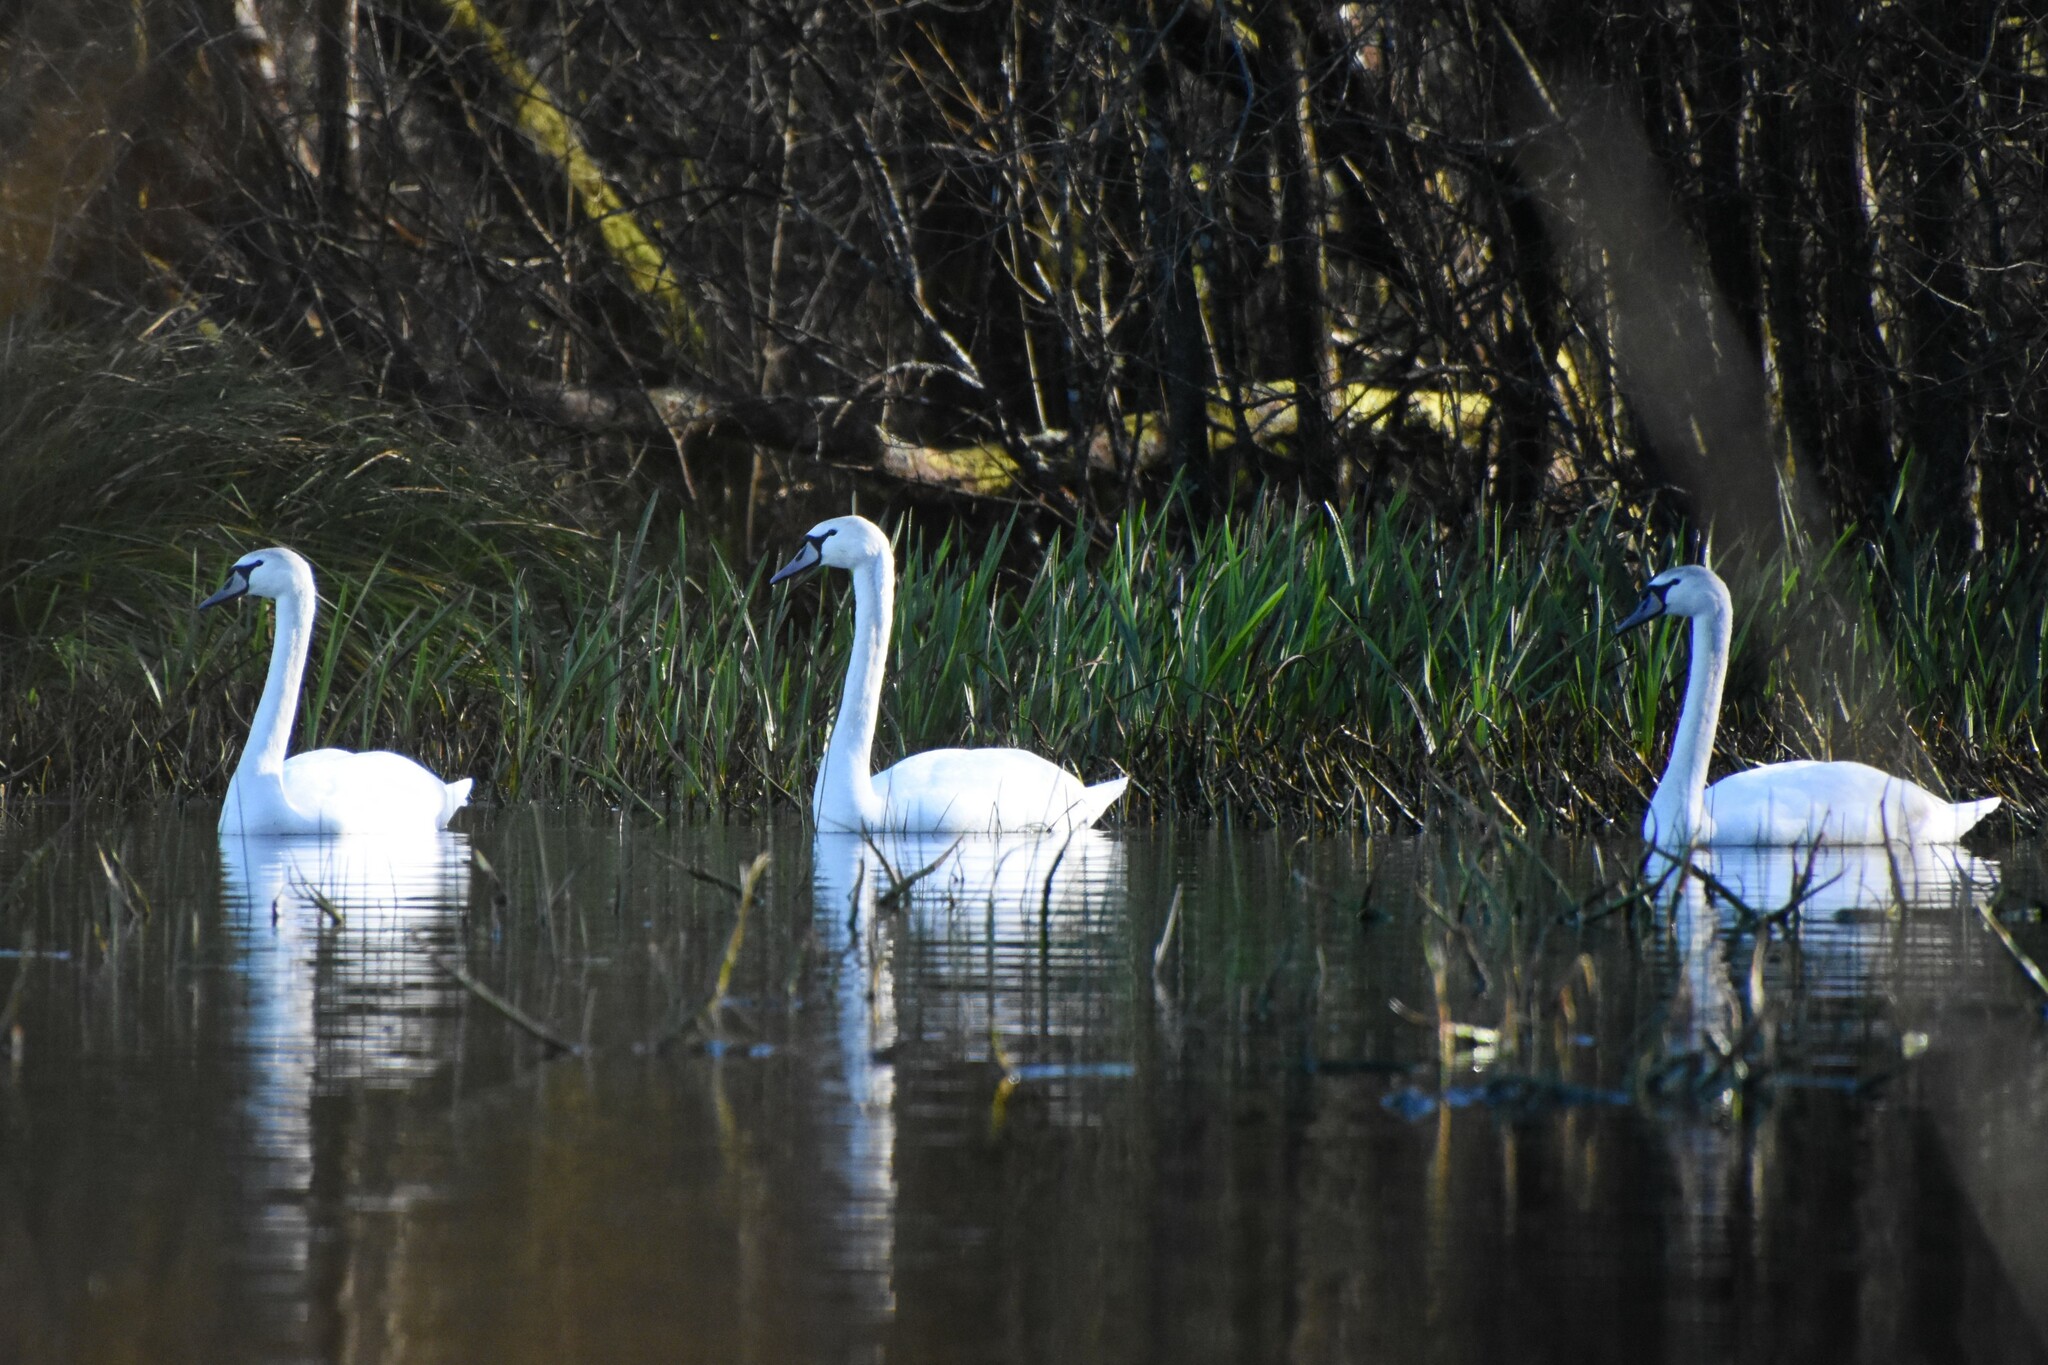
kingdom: Animalia
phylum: Chordata
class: Aves
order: Anseriformes
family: Anatidae
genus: Cygnus
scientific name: Cygnus olor
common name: Mute swan
